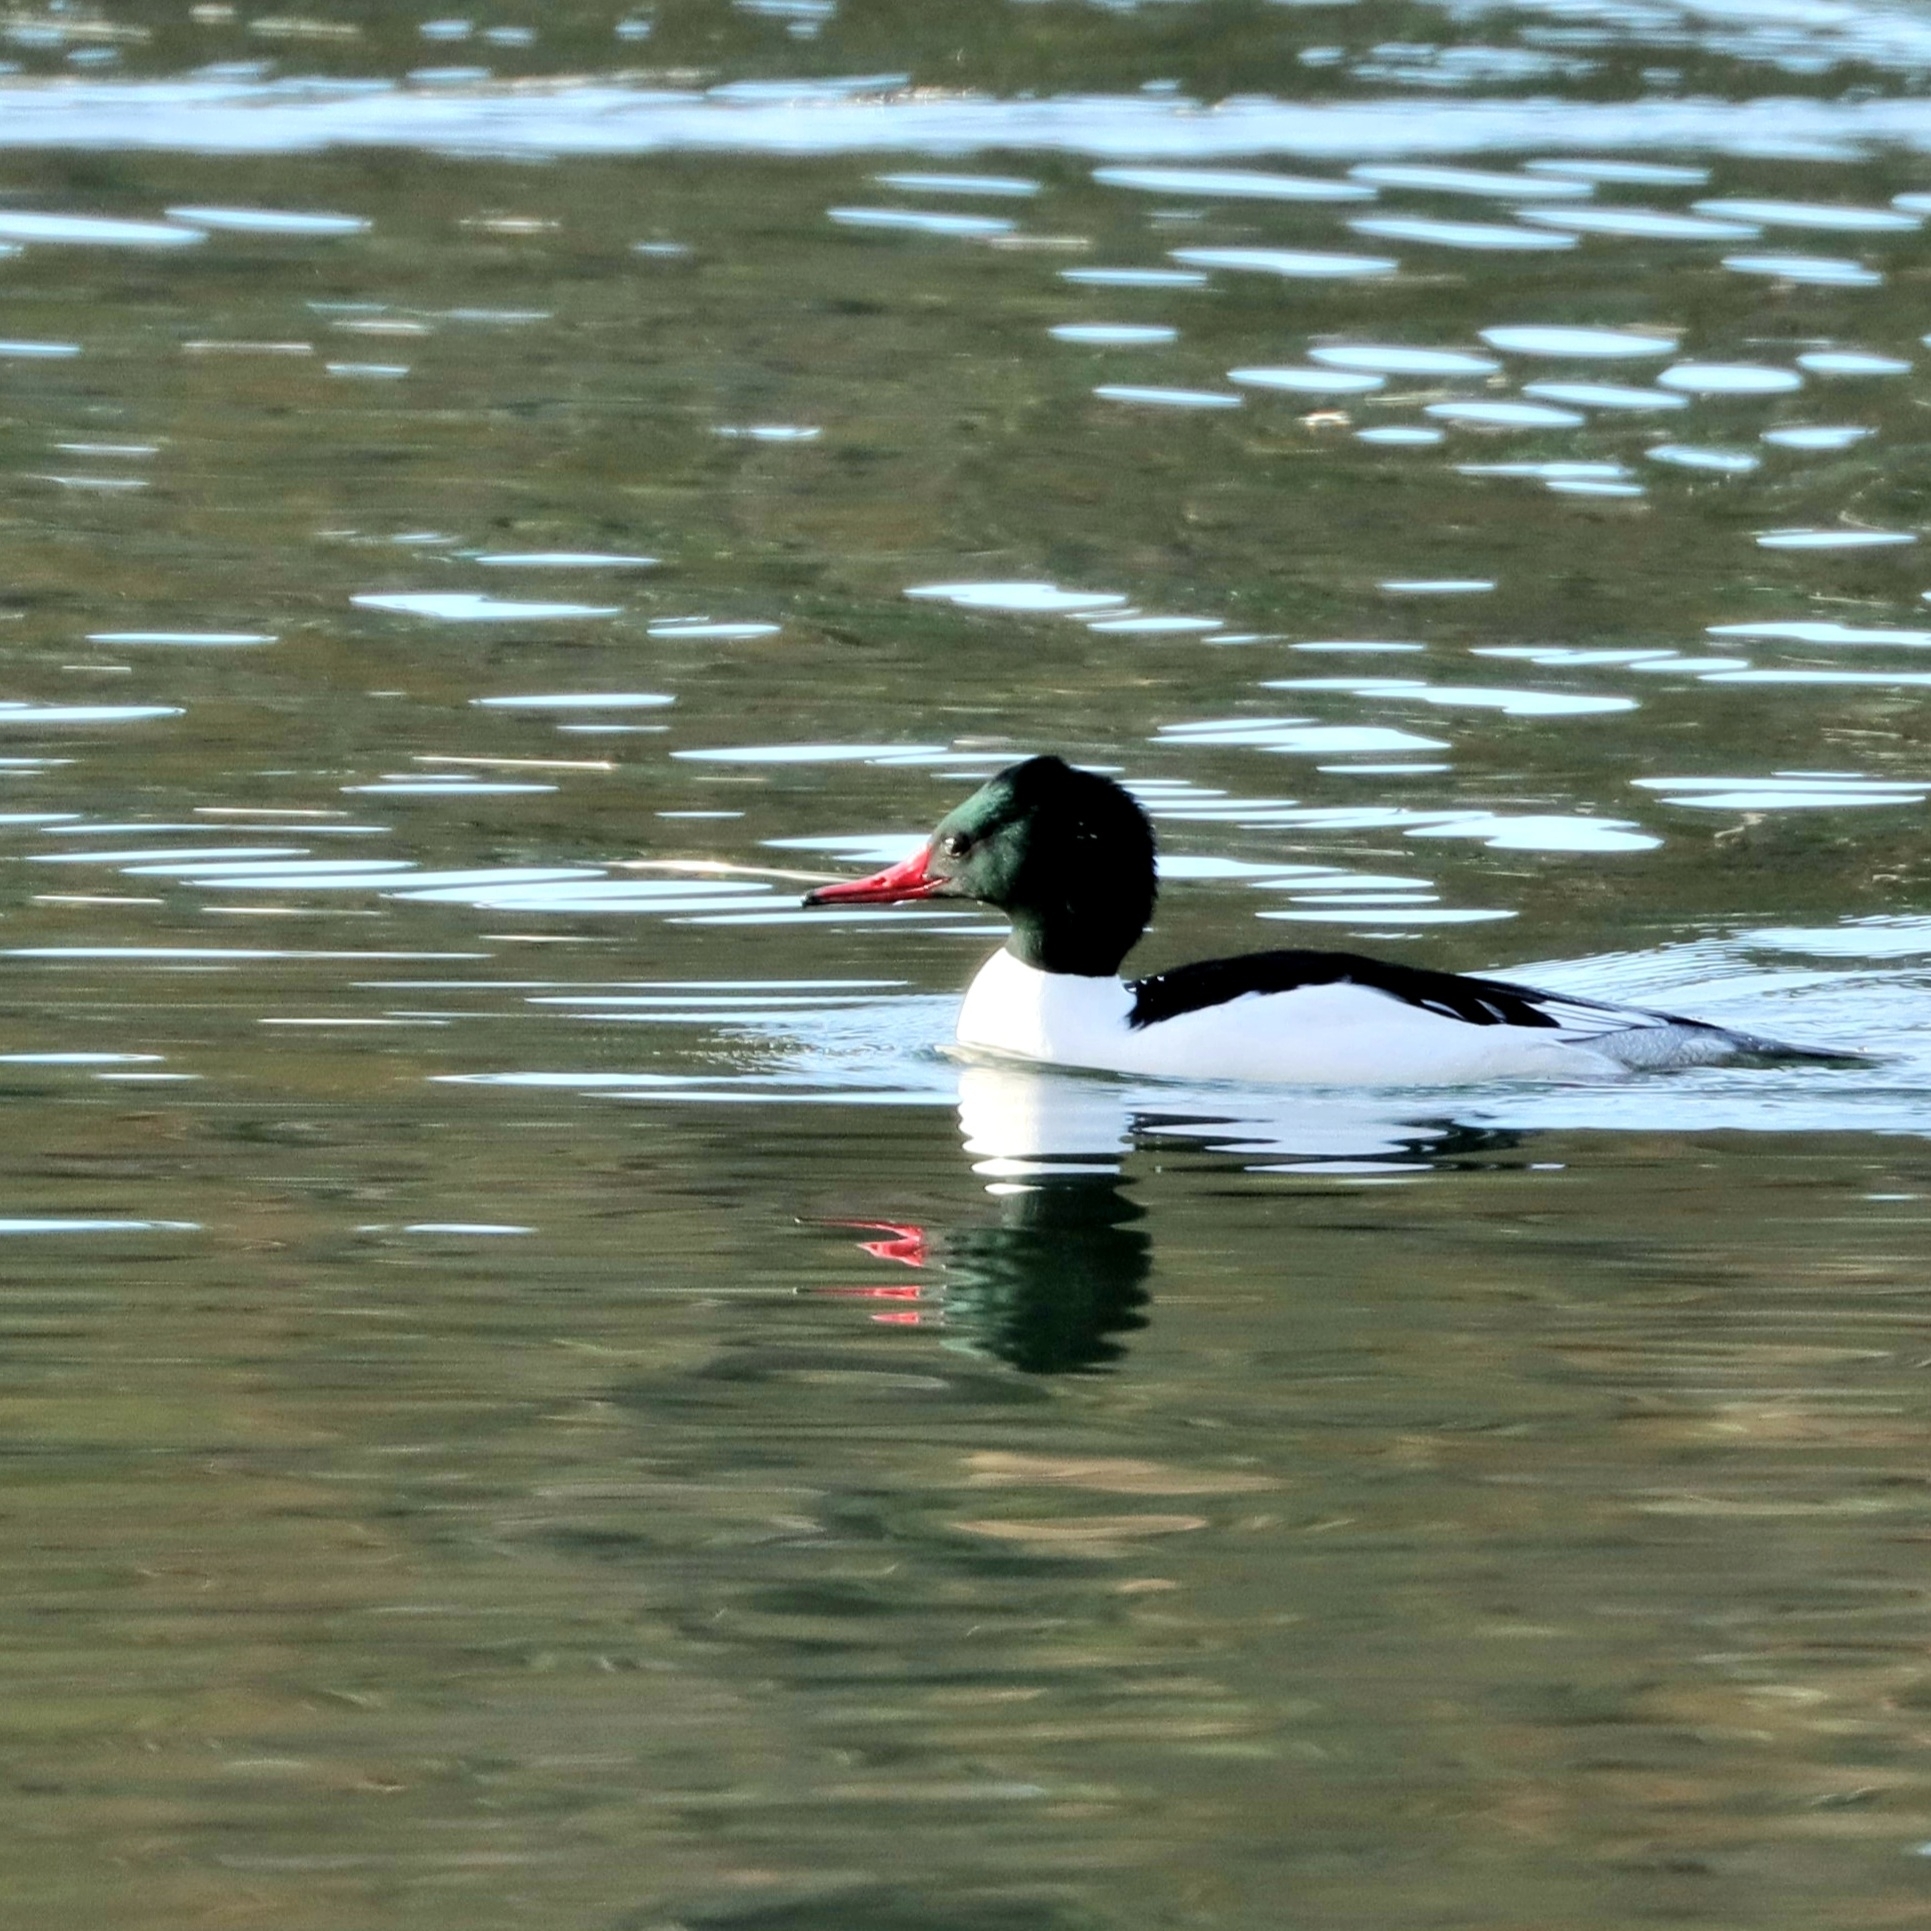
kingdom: Animalia
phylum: Chordata
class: Aves
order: Anseriformes
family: Anatidae
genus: Mergus
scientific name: Mergus merganser
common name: Common merganser
